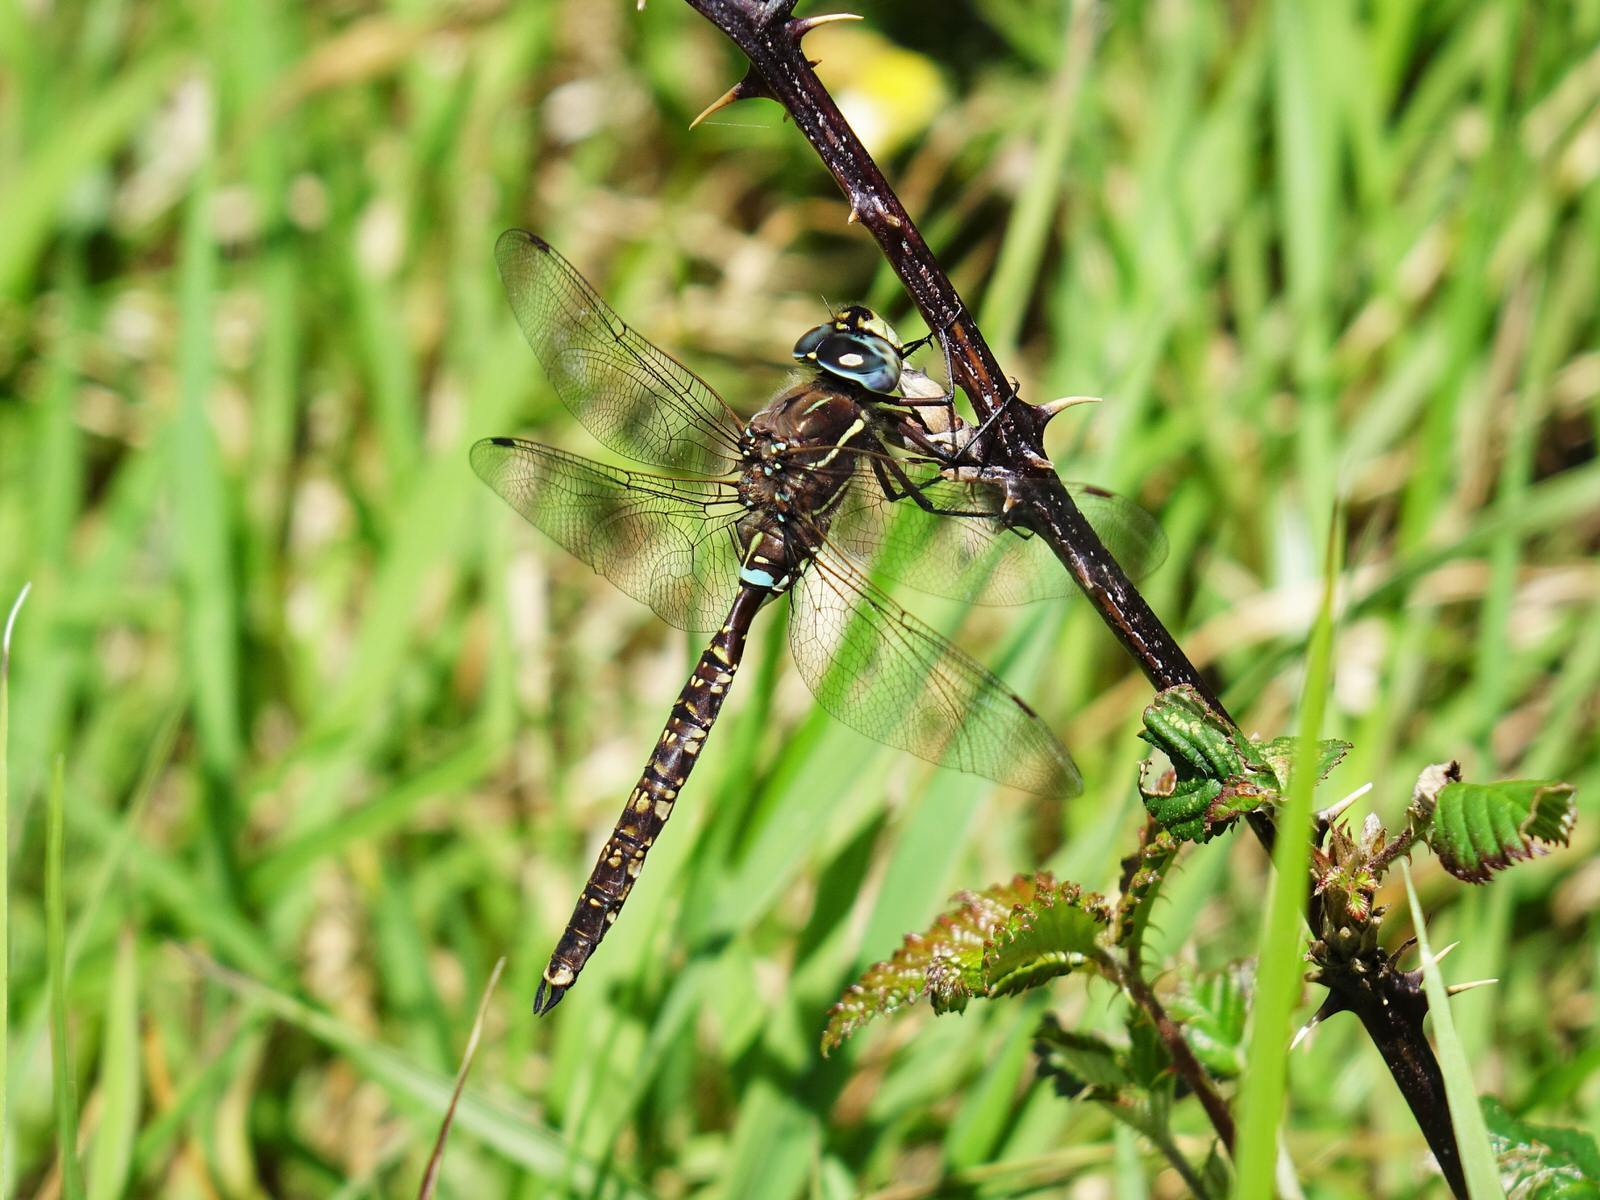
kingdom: Animalia
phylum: Arthropoda
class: Insecta
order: Odonata
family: Aeshnidae
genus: Aeshna
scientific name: Aeshna brevistyla
